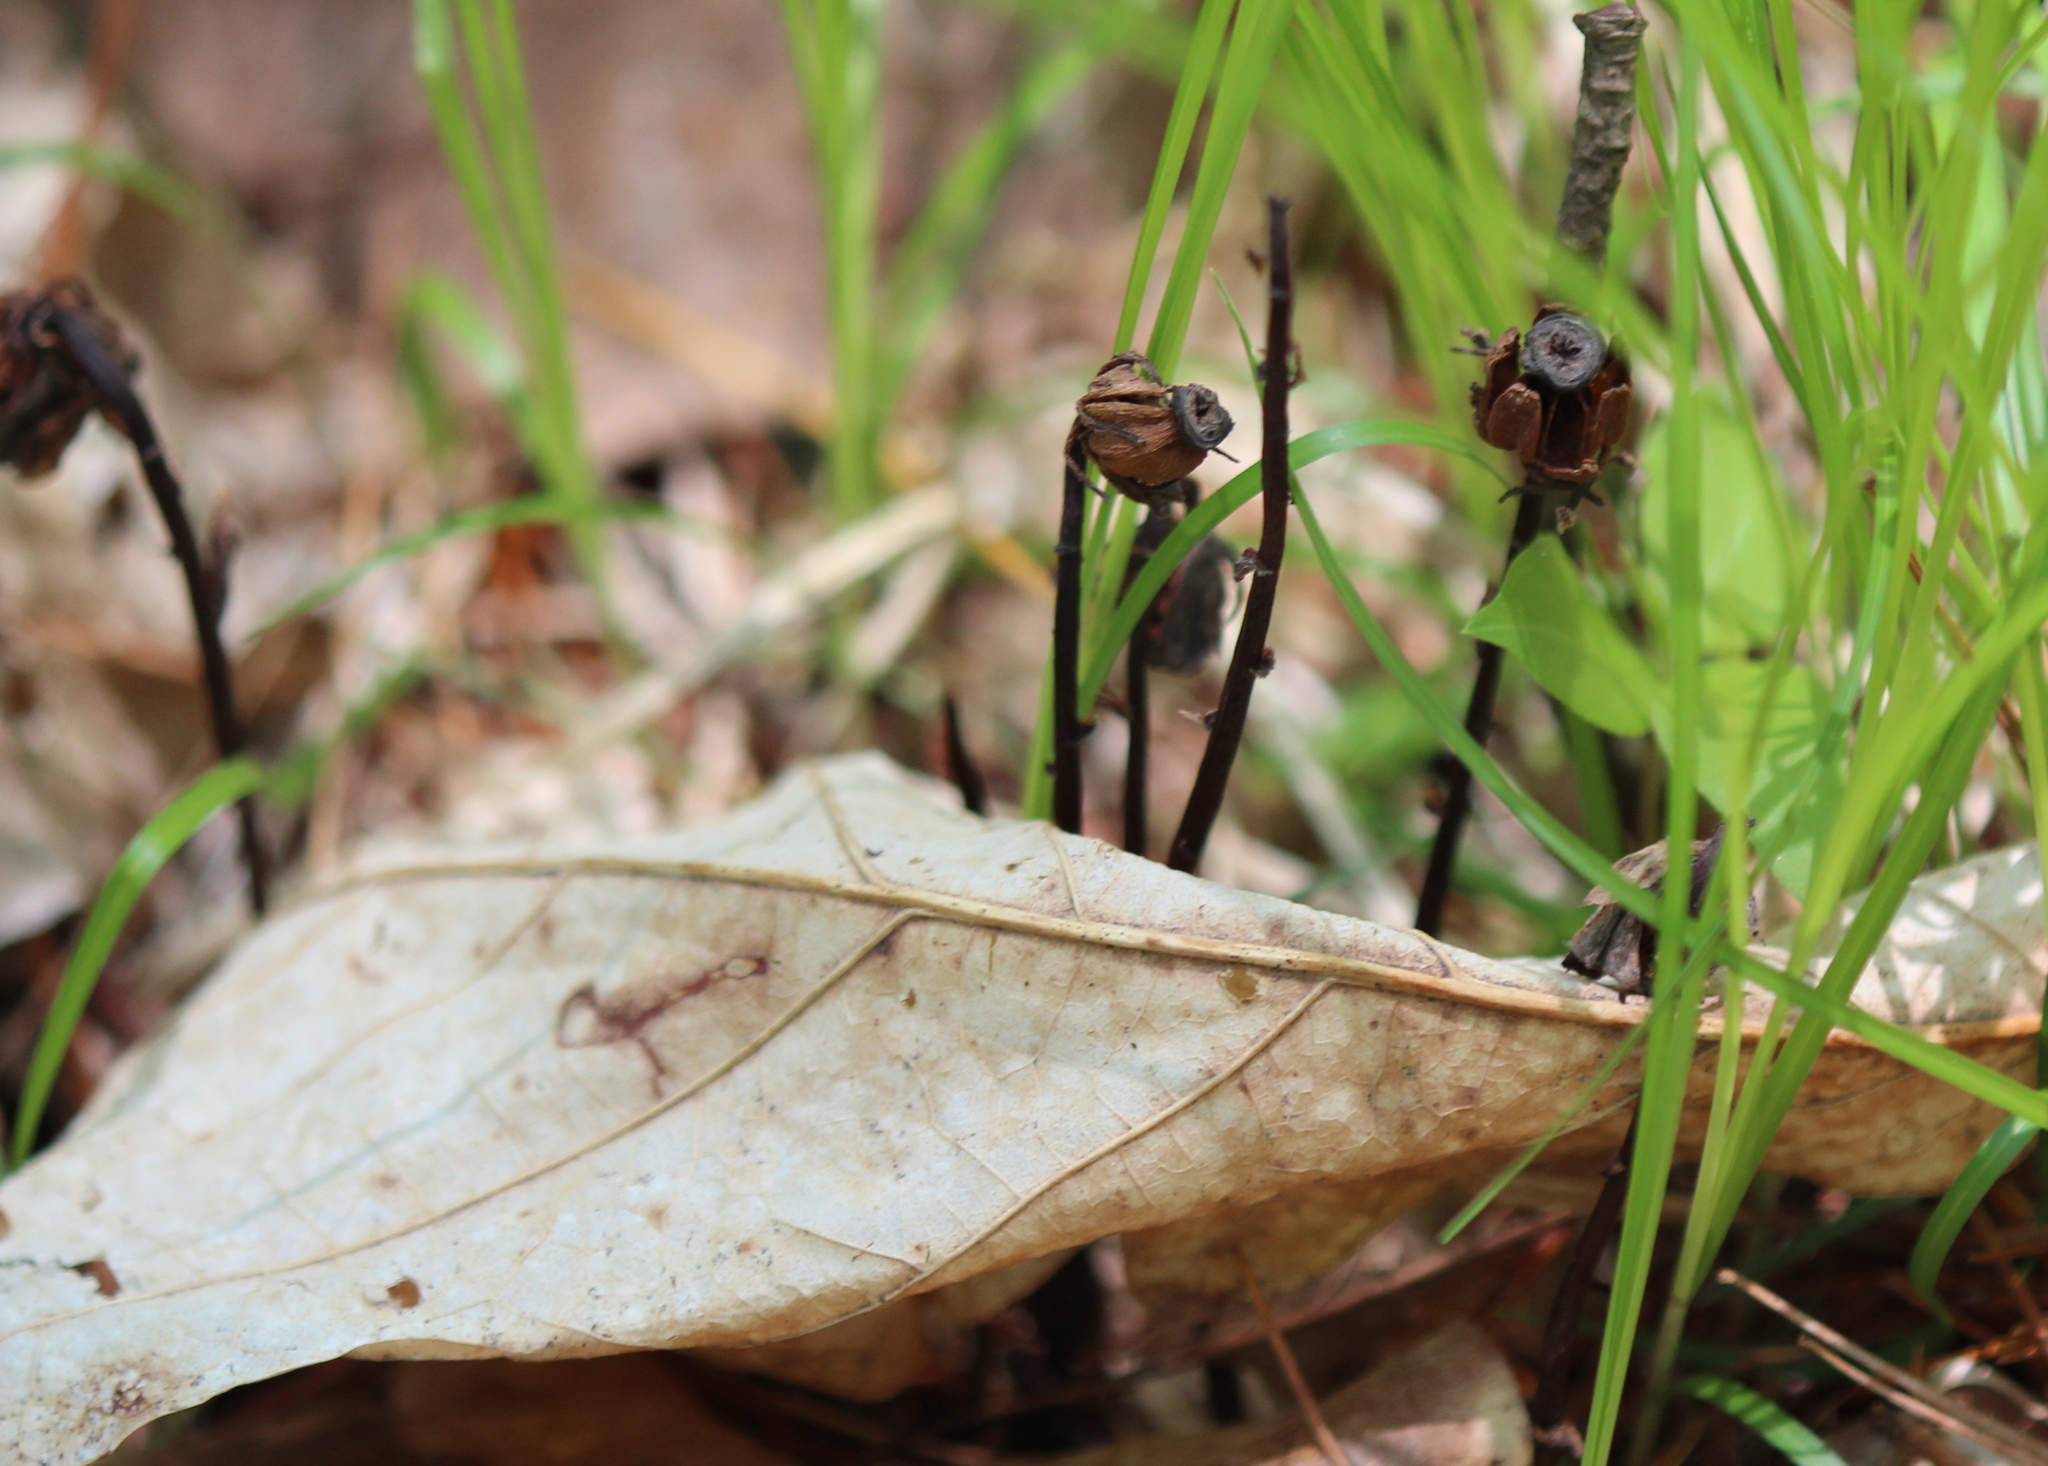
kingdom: Plantae
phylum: Tracheophyta
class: Magnoliopsida
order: Ericales
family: Ericaceae
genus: Monotropa
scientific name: Monotropa uniflora
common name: Convulsion root
